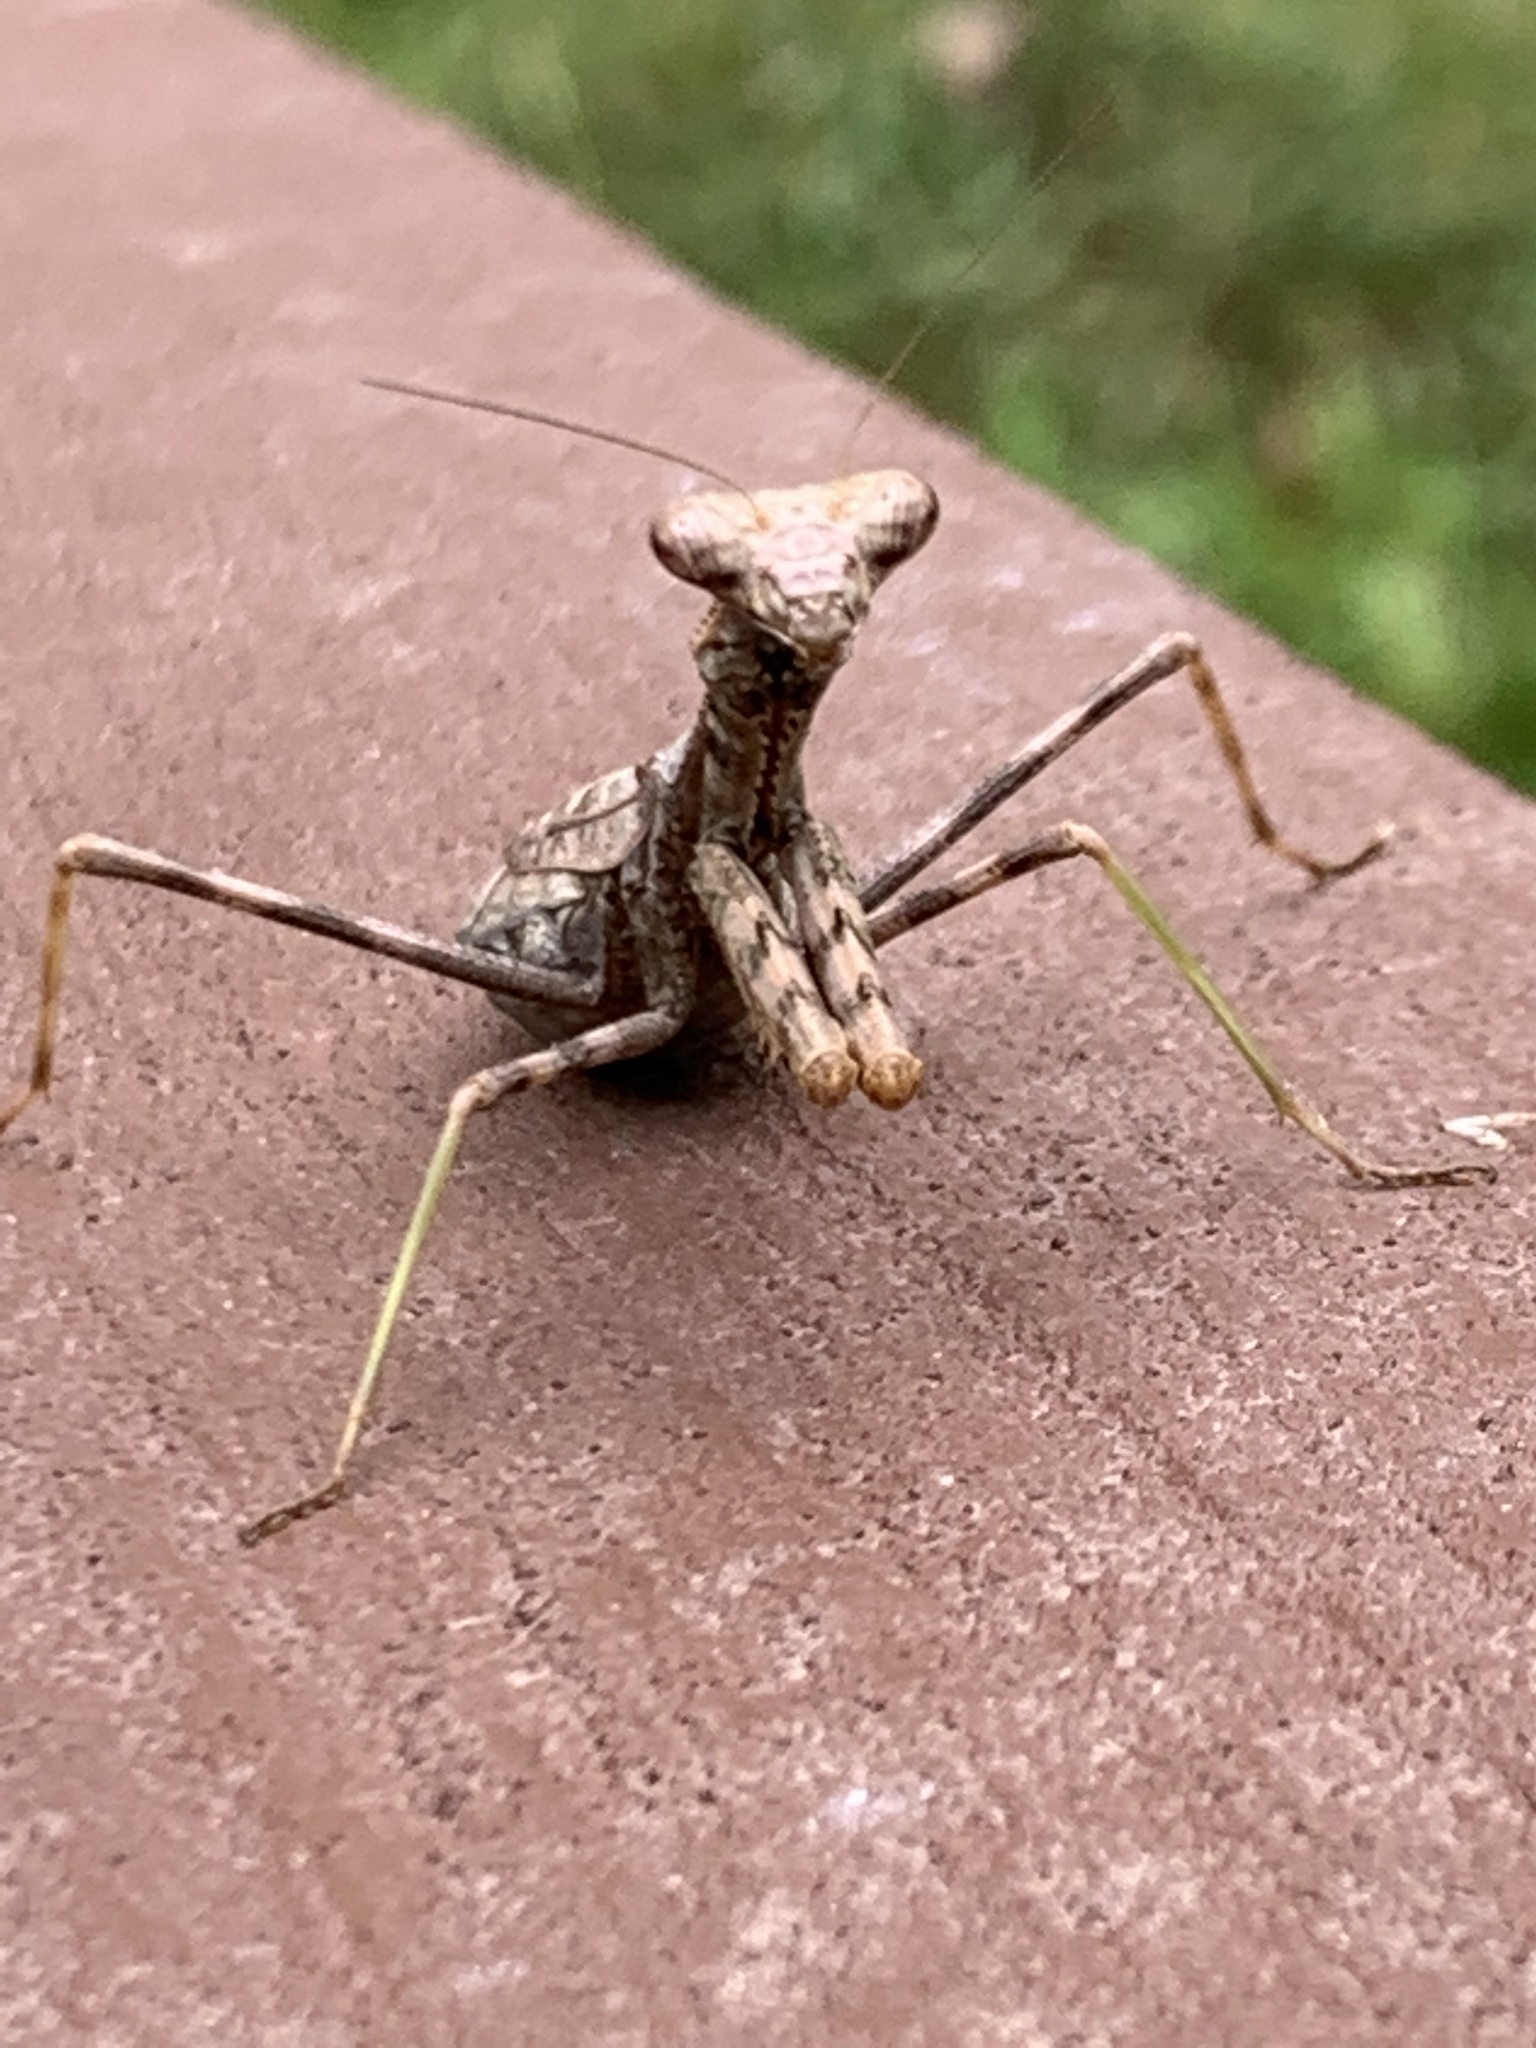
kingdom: Animalia
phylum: Arthropoda
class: Insecta
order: Mantodea
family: Mantidae
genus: Stagmomantis
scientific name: Stagmomantis carolina
